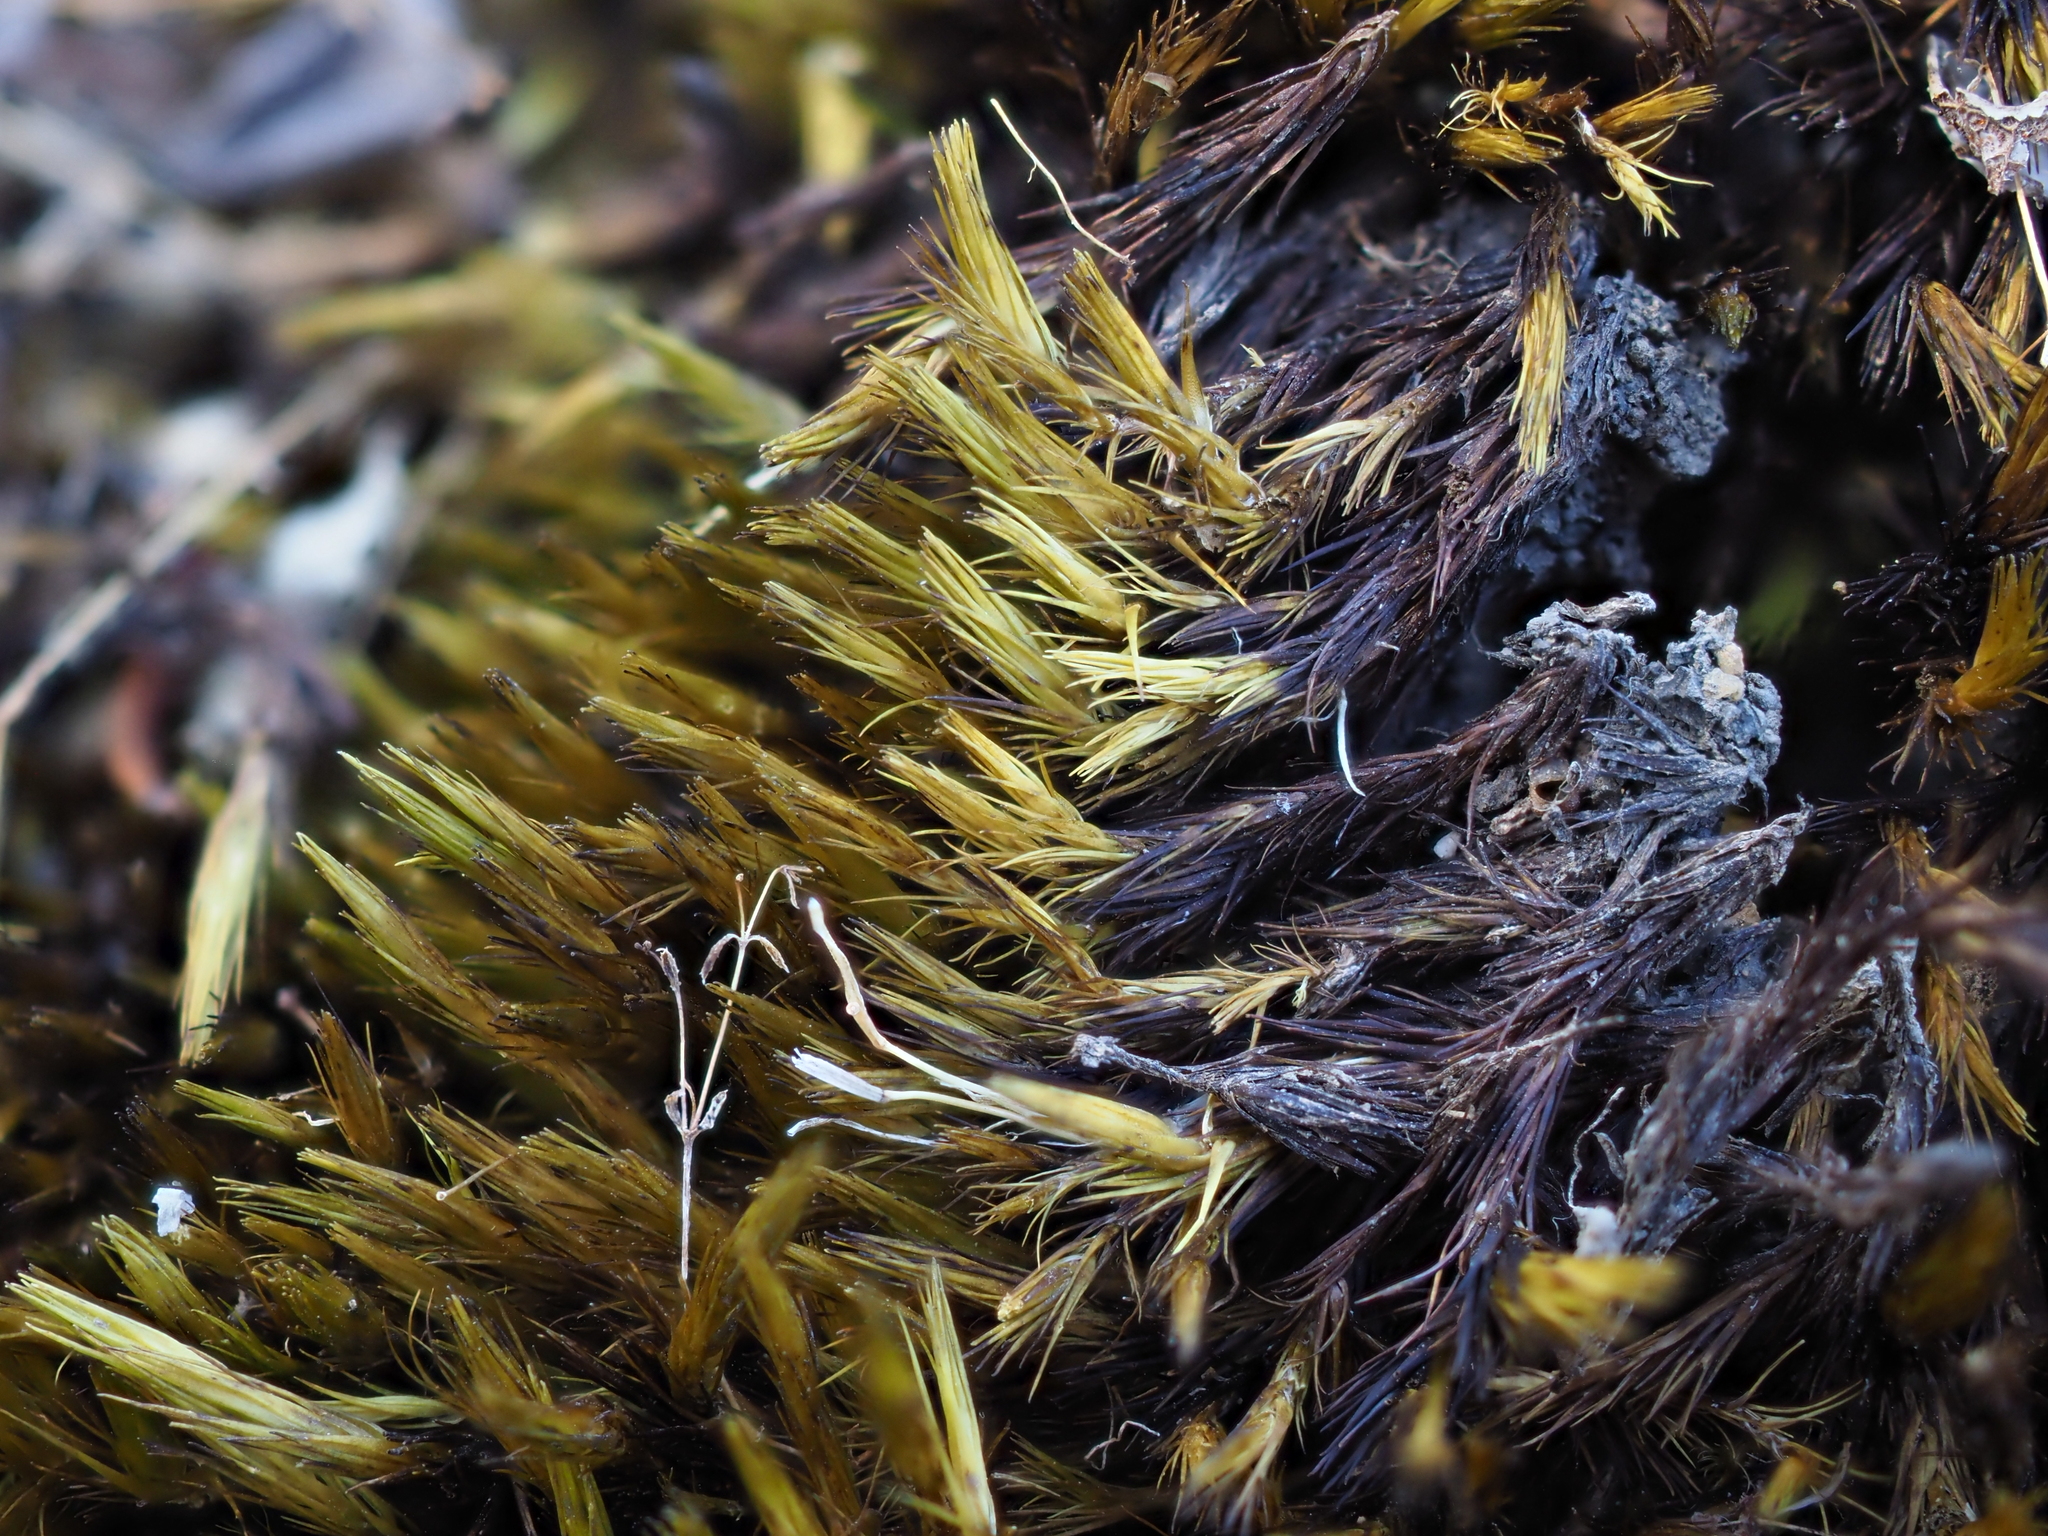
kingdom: Plantae
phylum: Bryophyta
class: Bryopsida
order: Dicranales
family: Leucobryaceae
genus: Campylopus
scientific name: Campylopus bicolor
